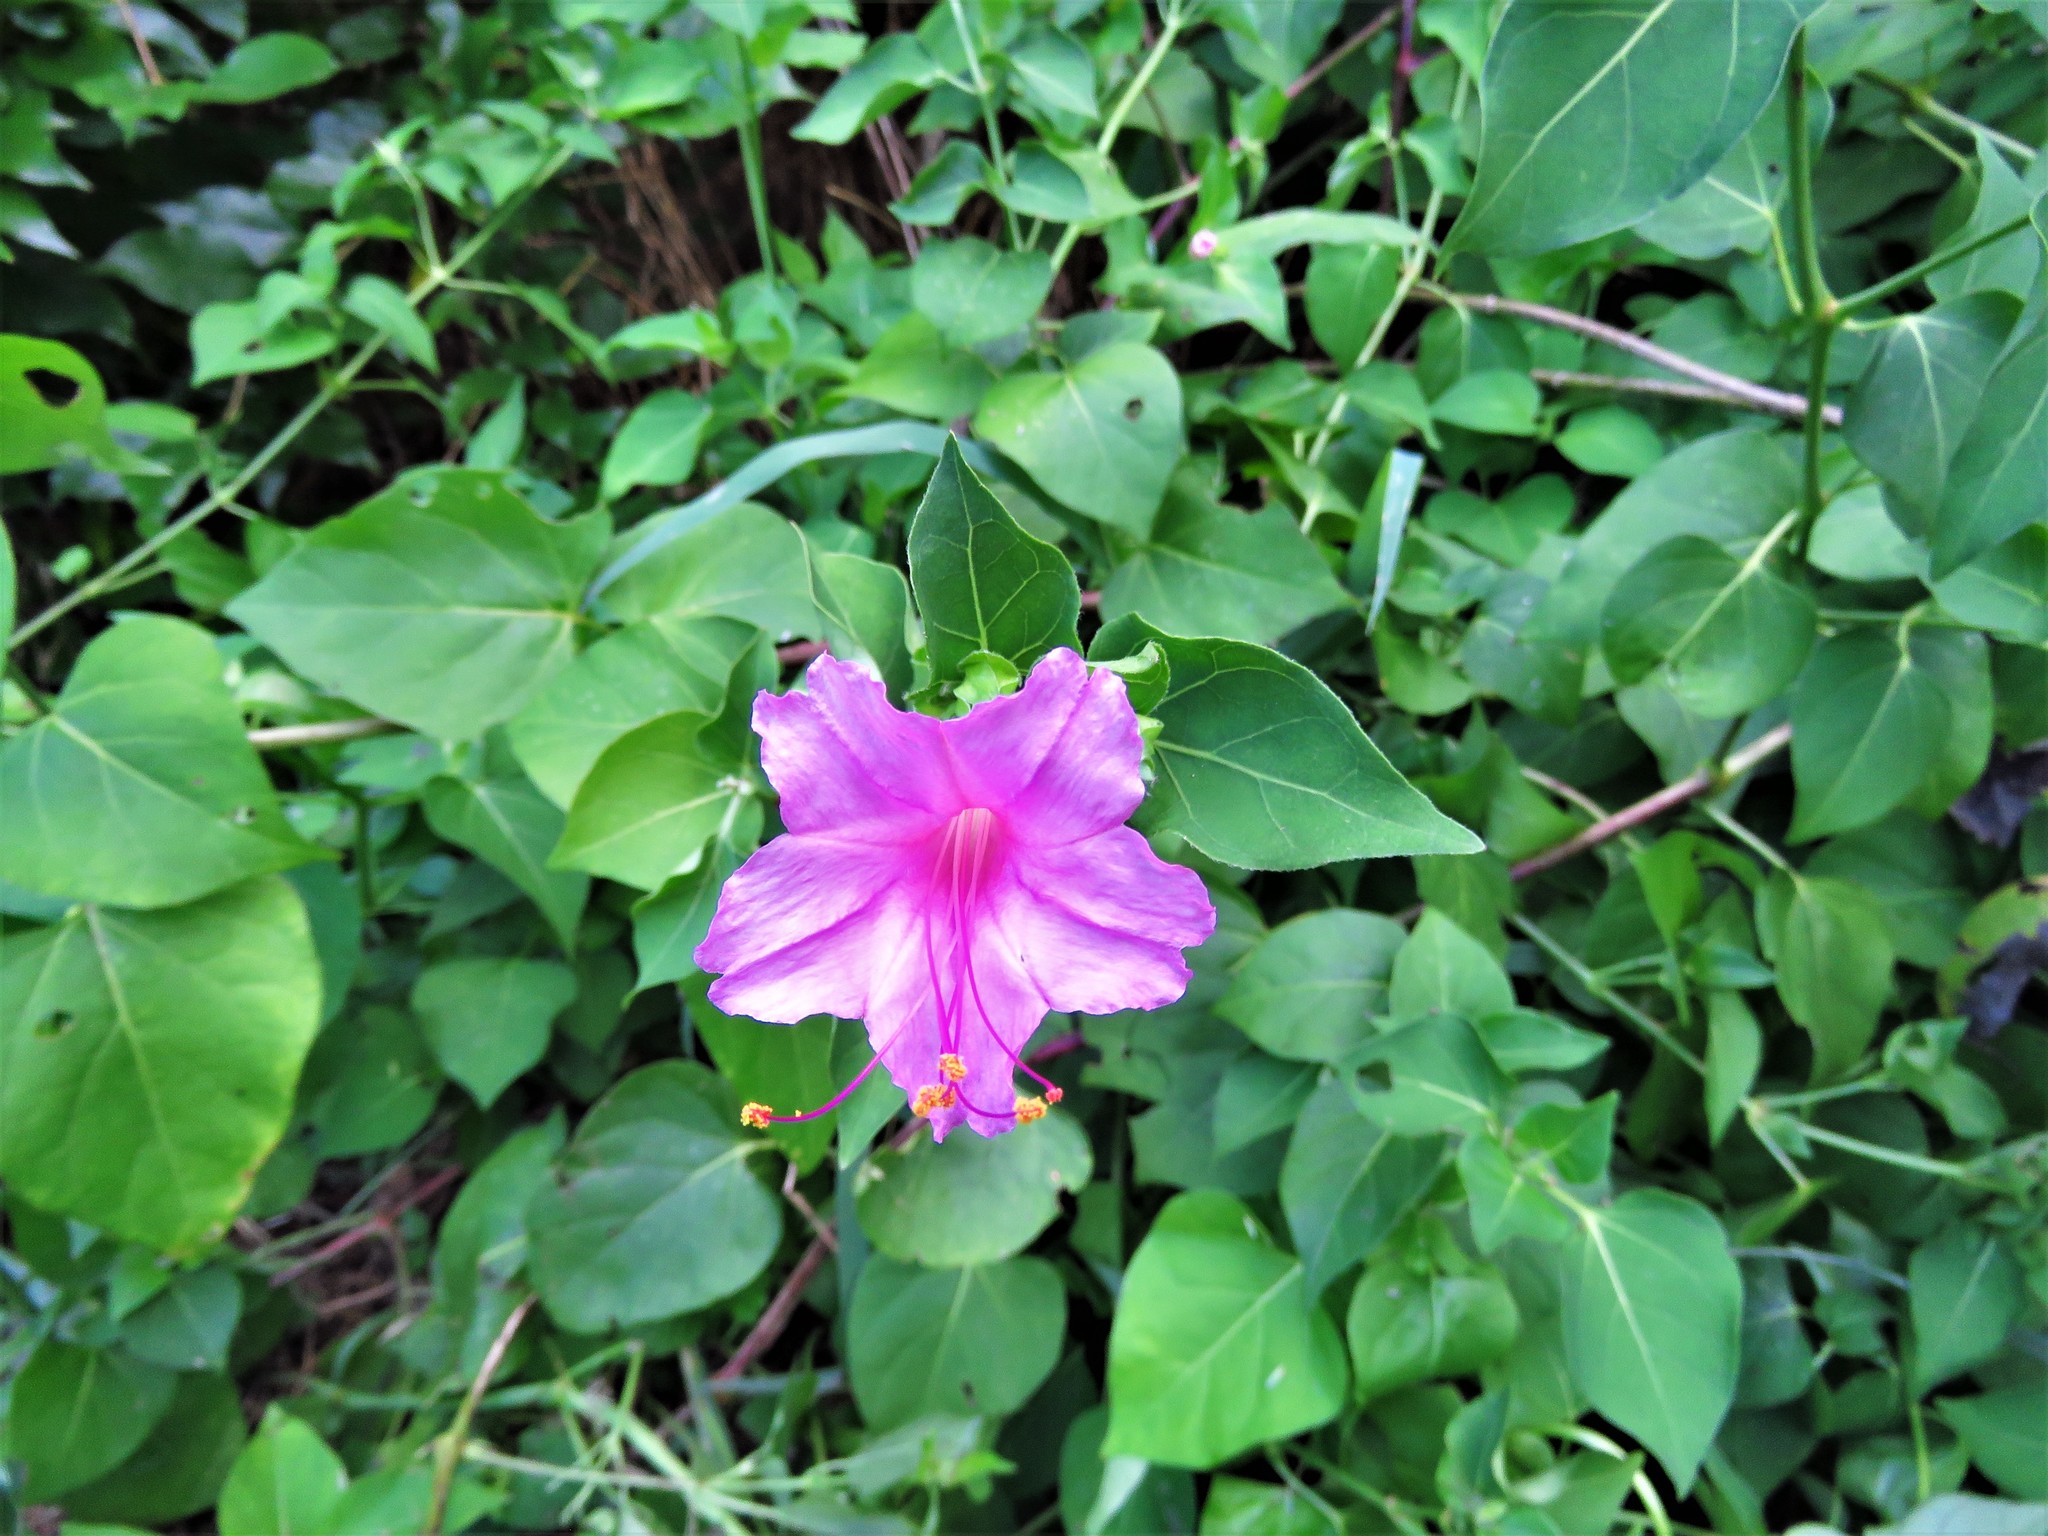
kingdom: Plantae
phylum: Tracheophyta
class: Magnoliopsida
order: Caryophyllales
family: Nyctaginaceae
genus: Mirabilis
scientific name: Mirabilis jalapa
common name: Marvel-of-peru
